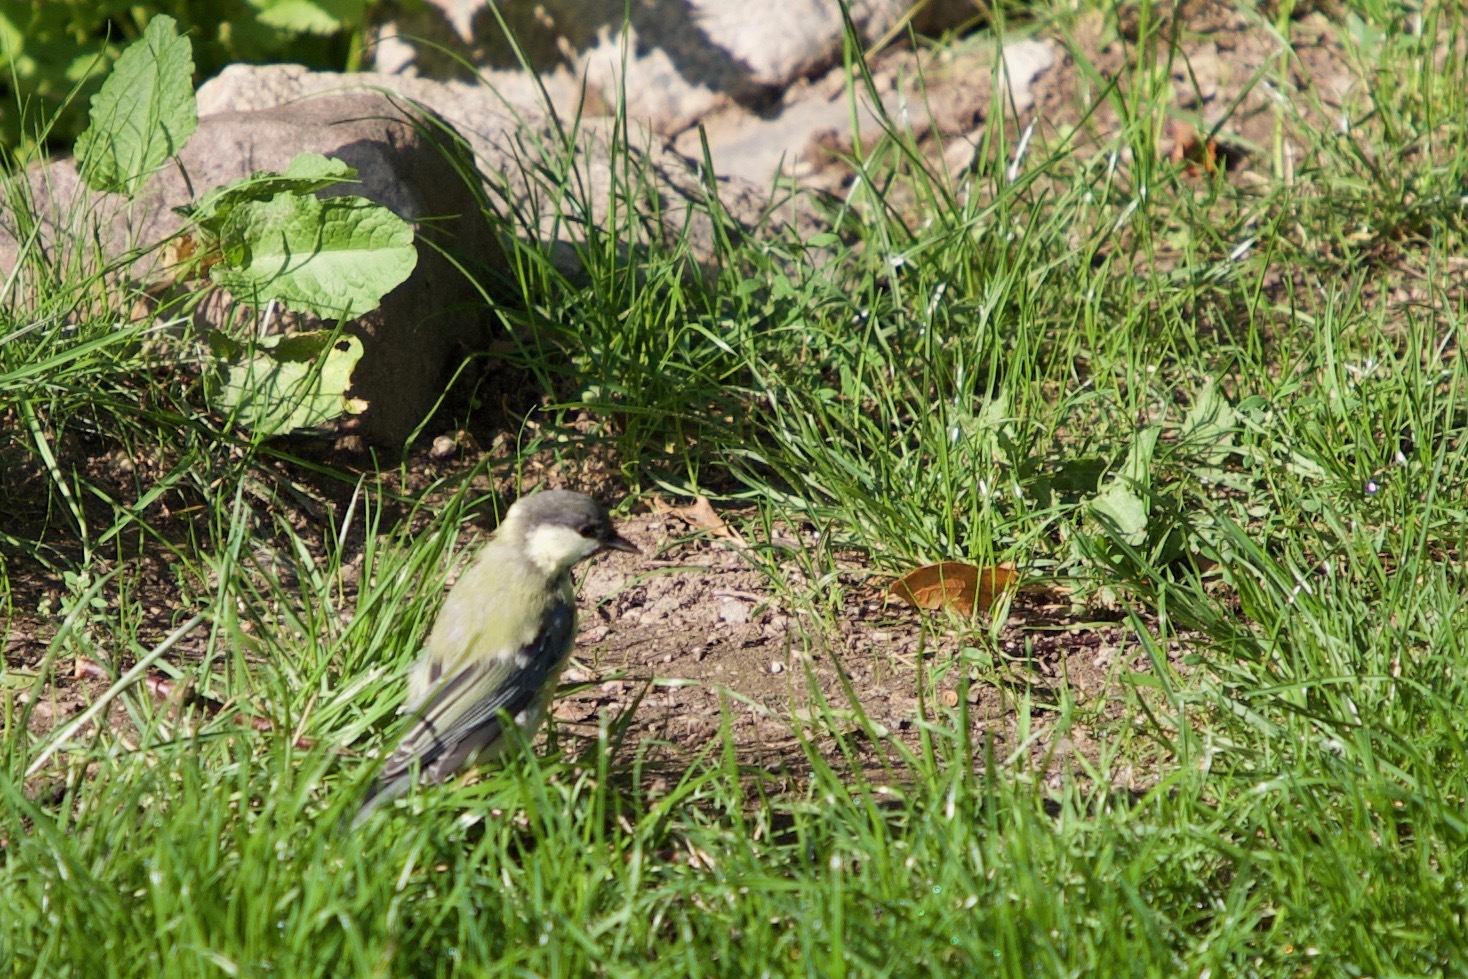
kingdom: Animalia
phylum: Chordata
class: Aves
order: Passeriformes
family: Paridae
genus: Parus
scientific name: Parus major
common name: Great tit
